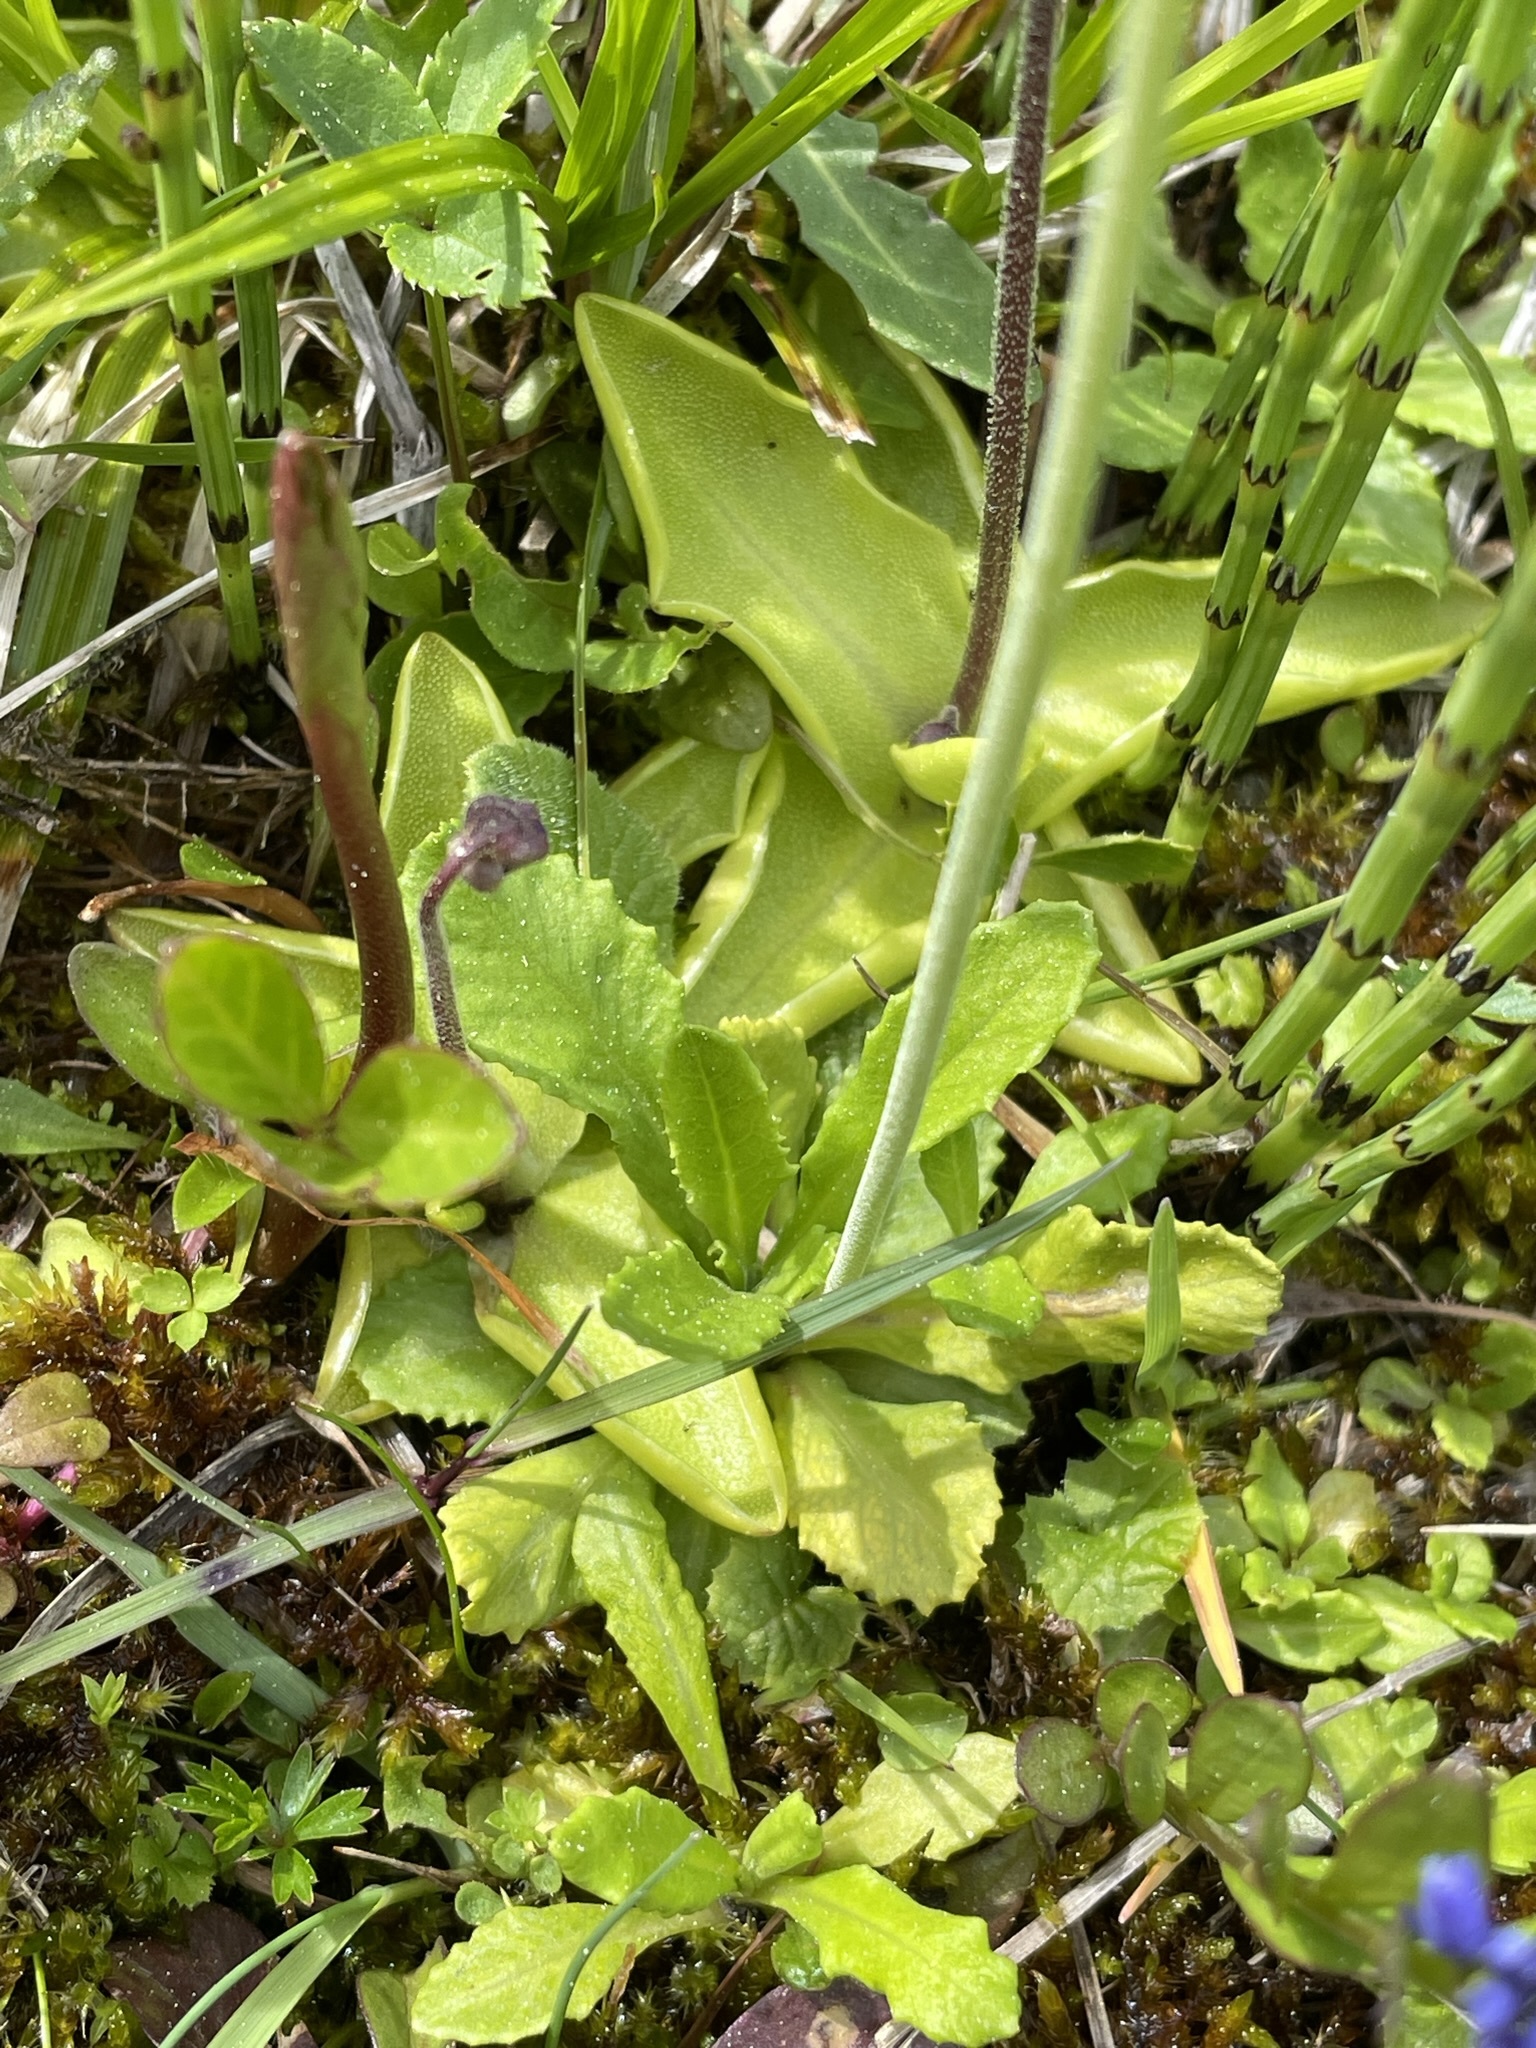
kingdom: Plantae
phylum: Tracheophyta
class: Magnoliopsida
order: Ericales
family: Primulaceae
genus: Primula
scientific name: Primula farinosa
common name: Bird's-eye primrose
